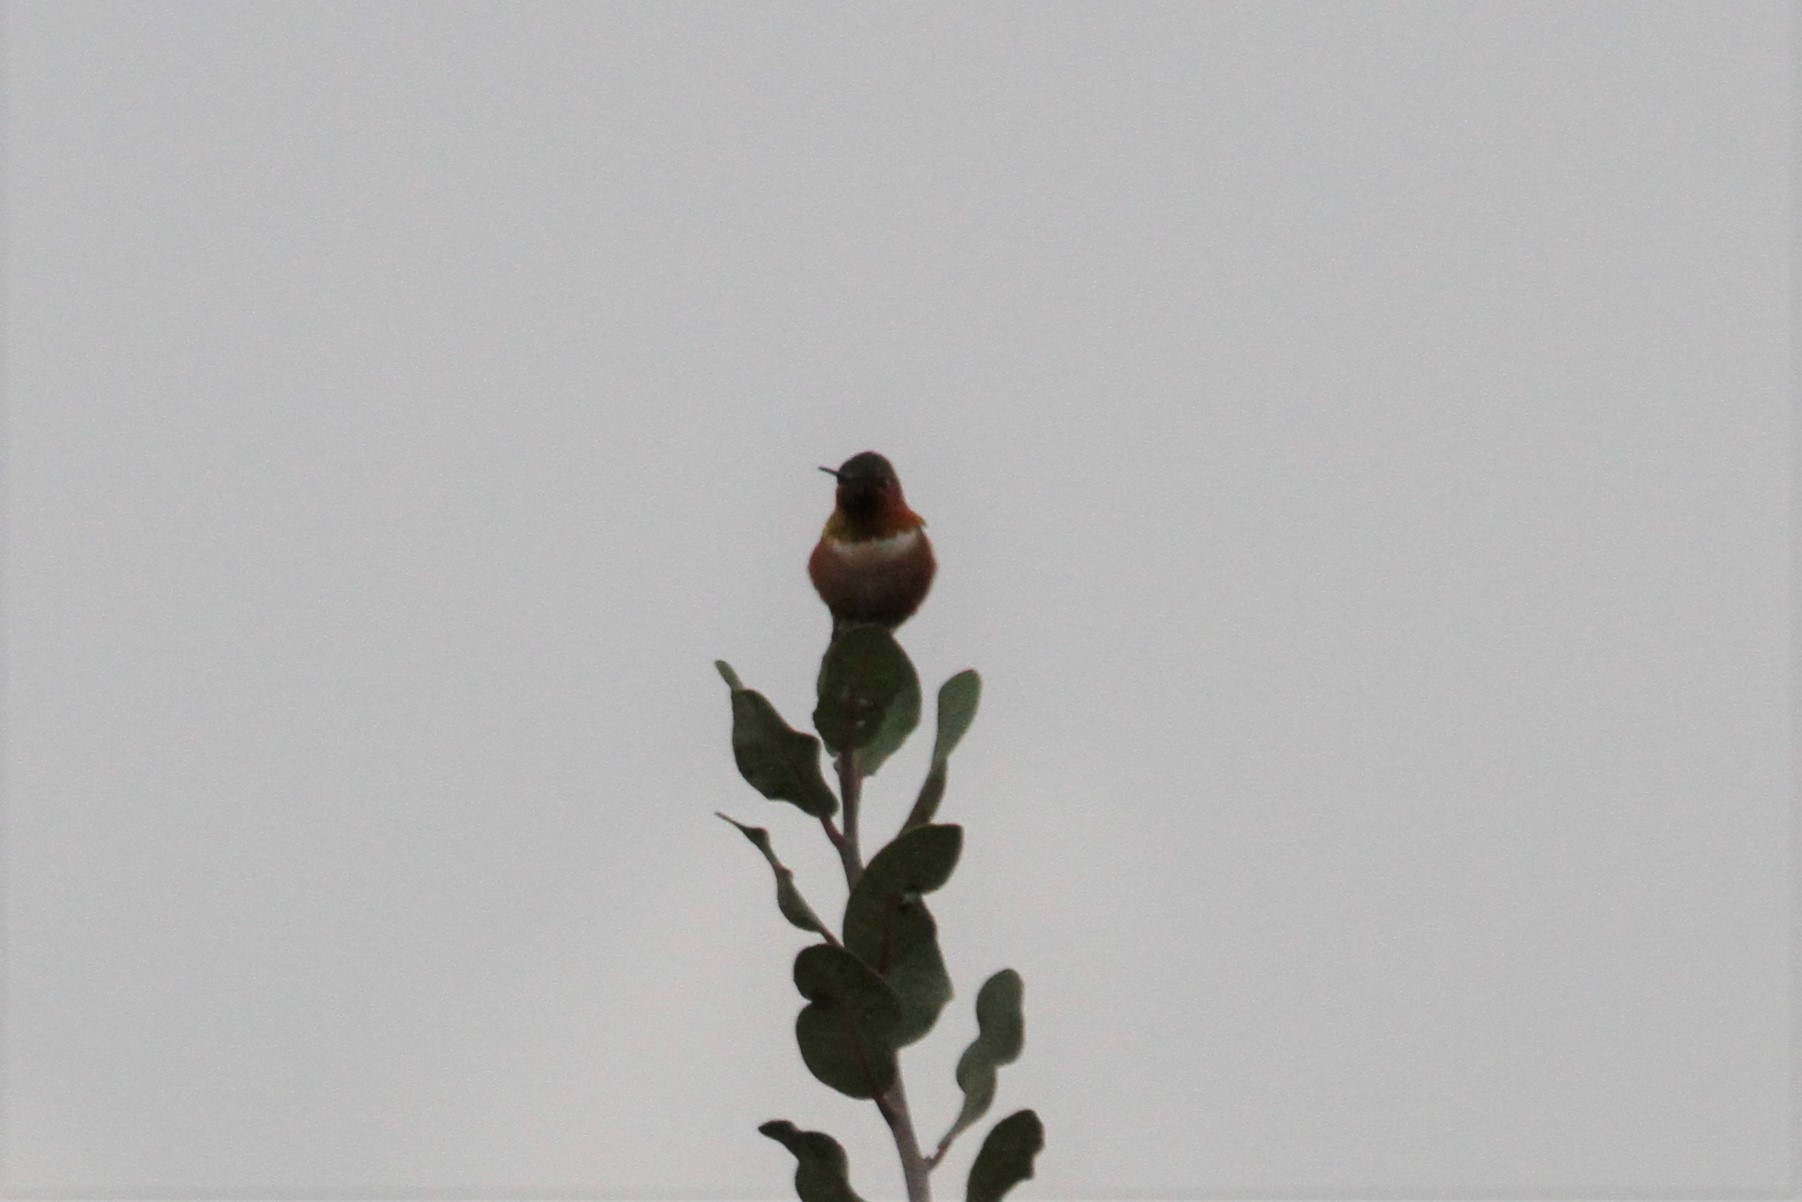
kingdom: Animalia
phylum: Chordata
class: Aves
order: Apodiformes
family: Trochilidae
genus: Selasphorus
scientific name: Selasphorus sasin
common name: Allen's hummingbird
